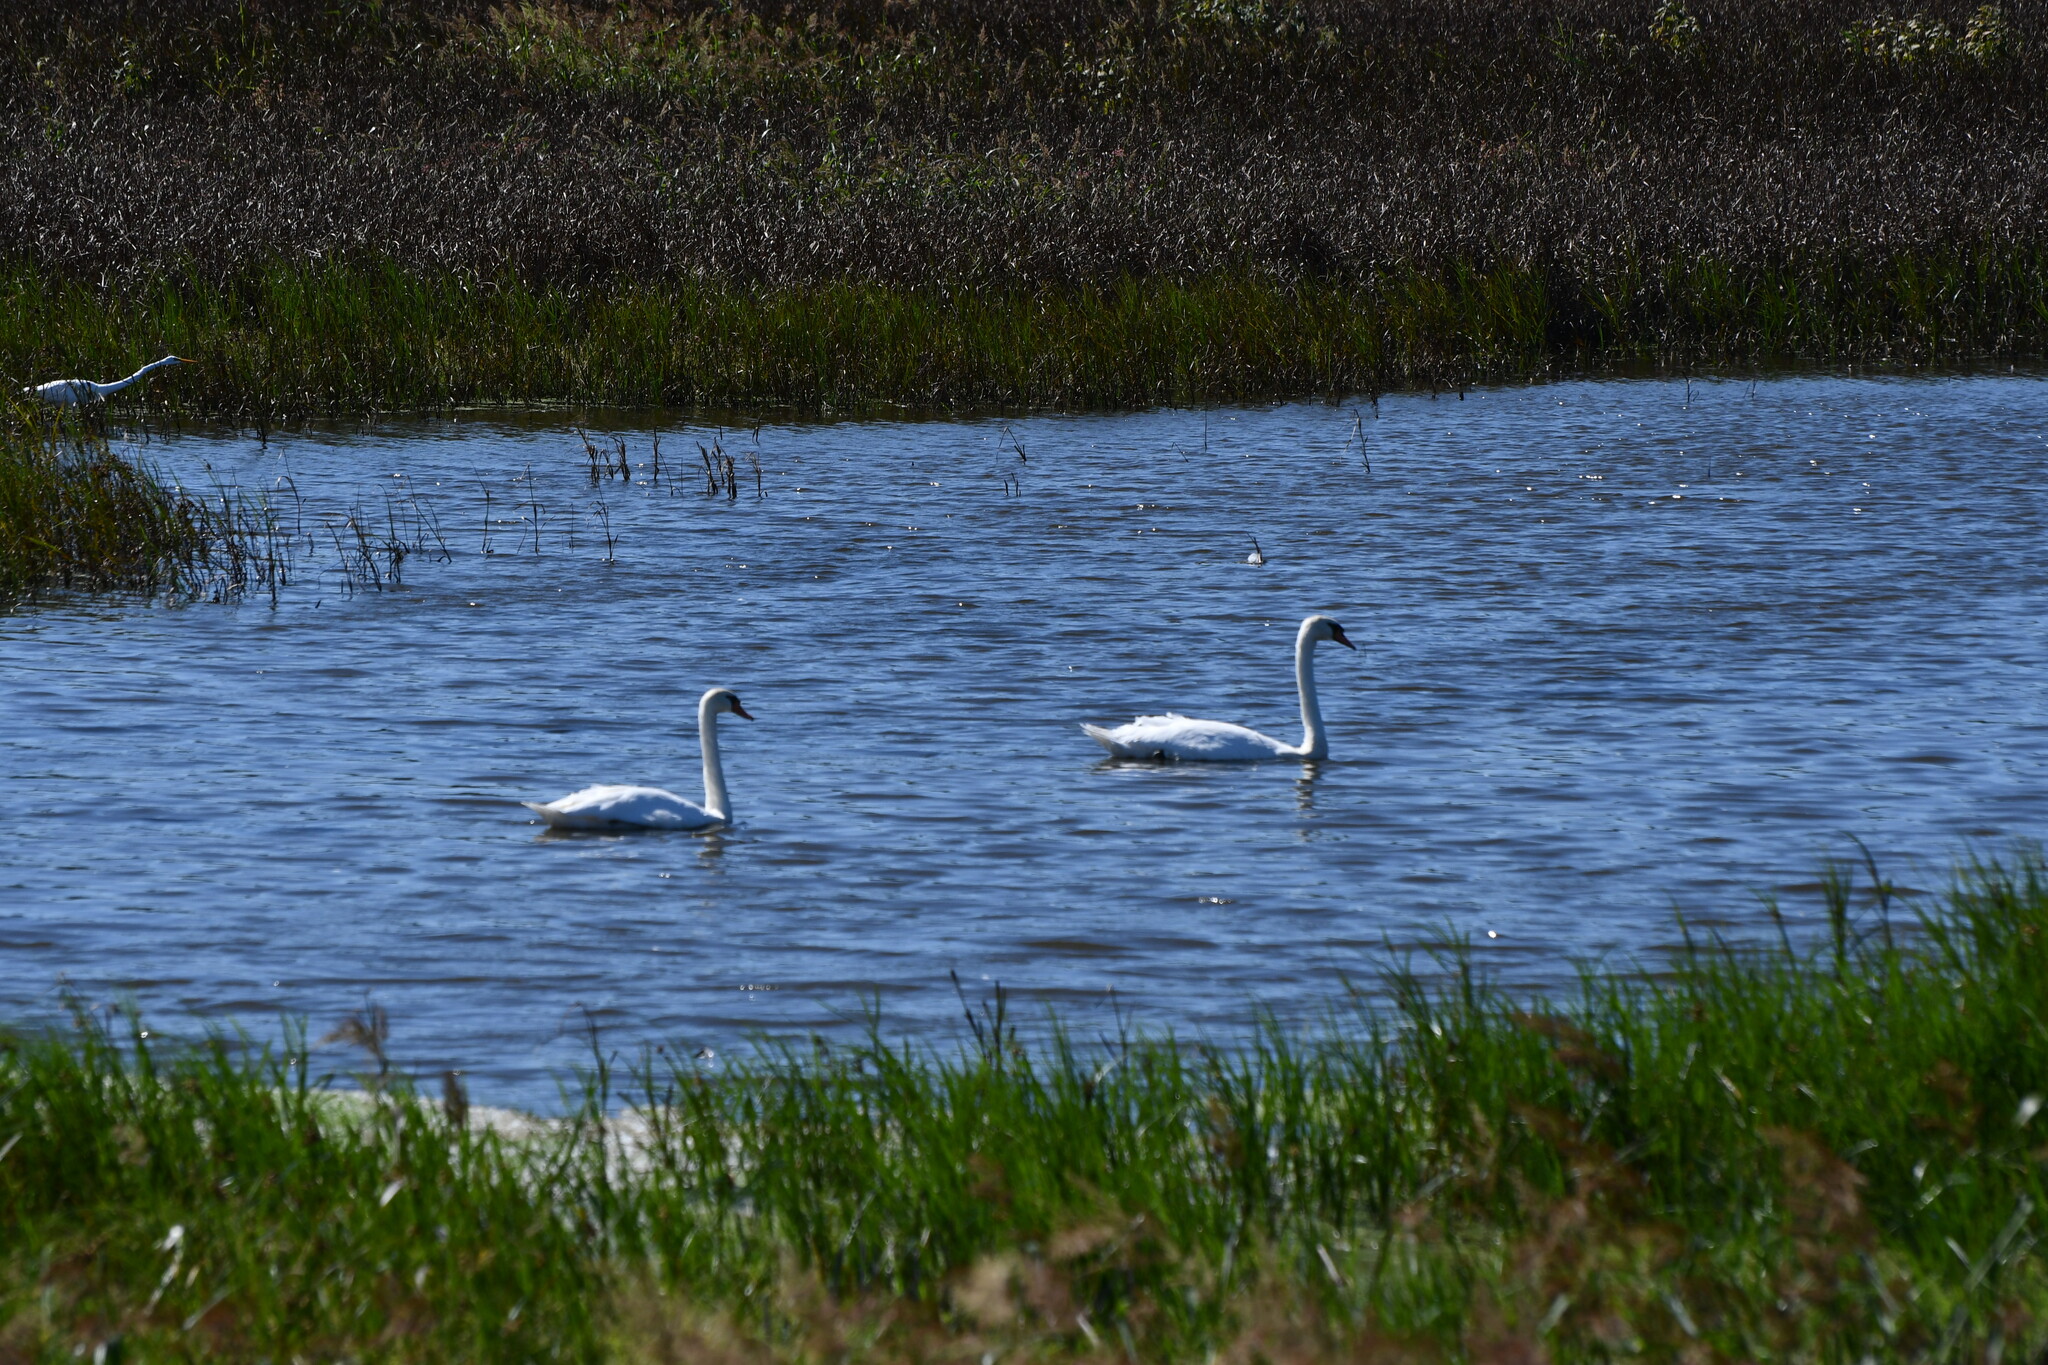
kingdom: Animalia
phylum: Chordata
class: Aves
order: Anseriformes
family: Anatidae
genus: Cygnus
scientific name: Cygnus olor
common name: Mute swan
